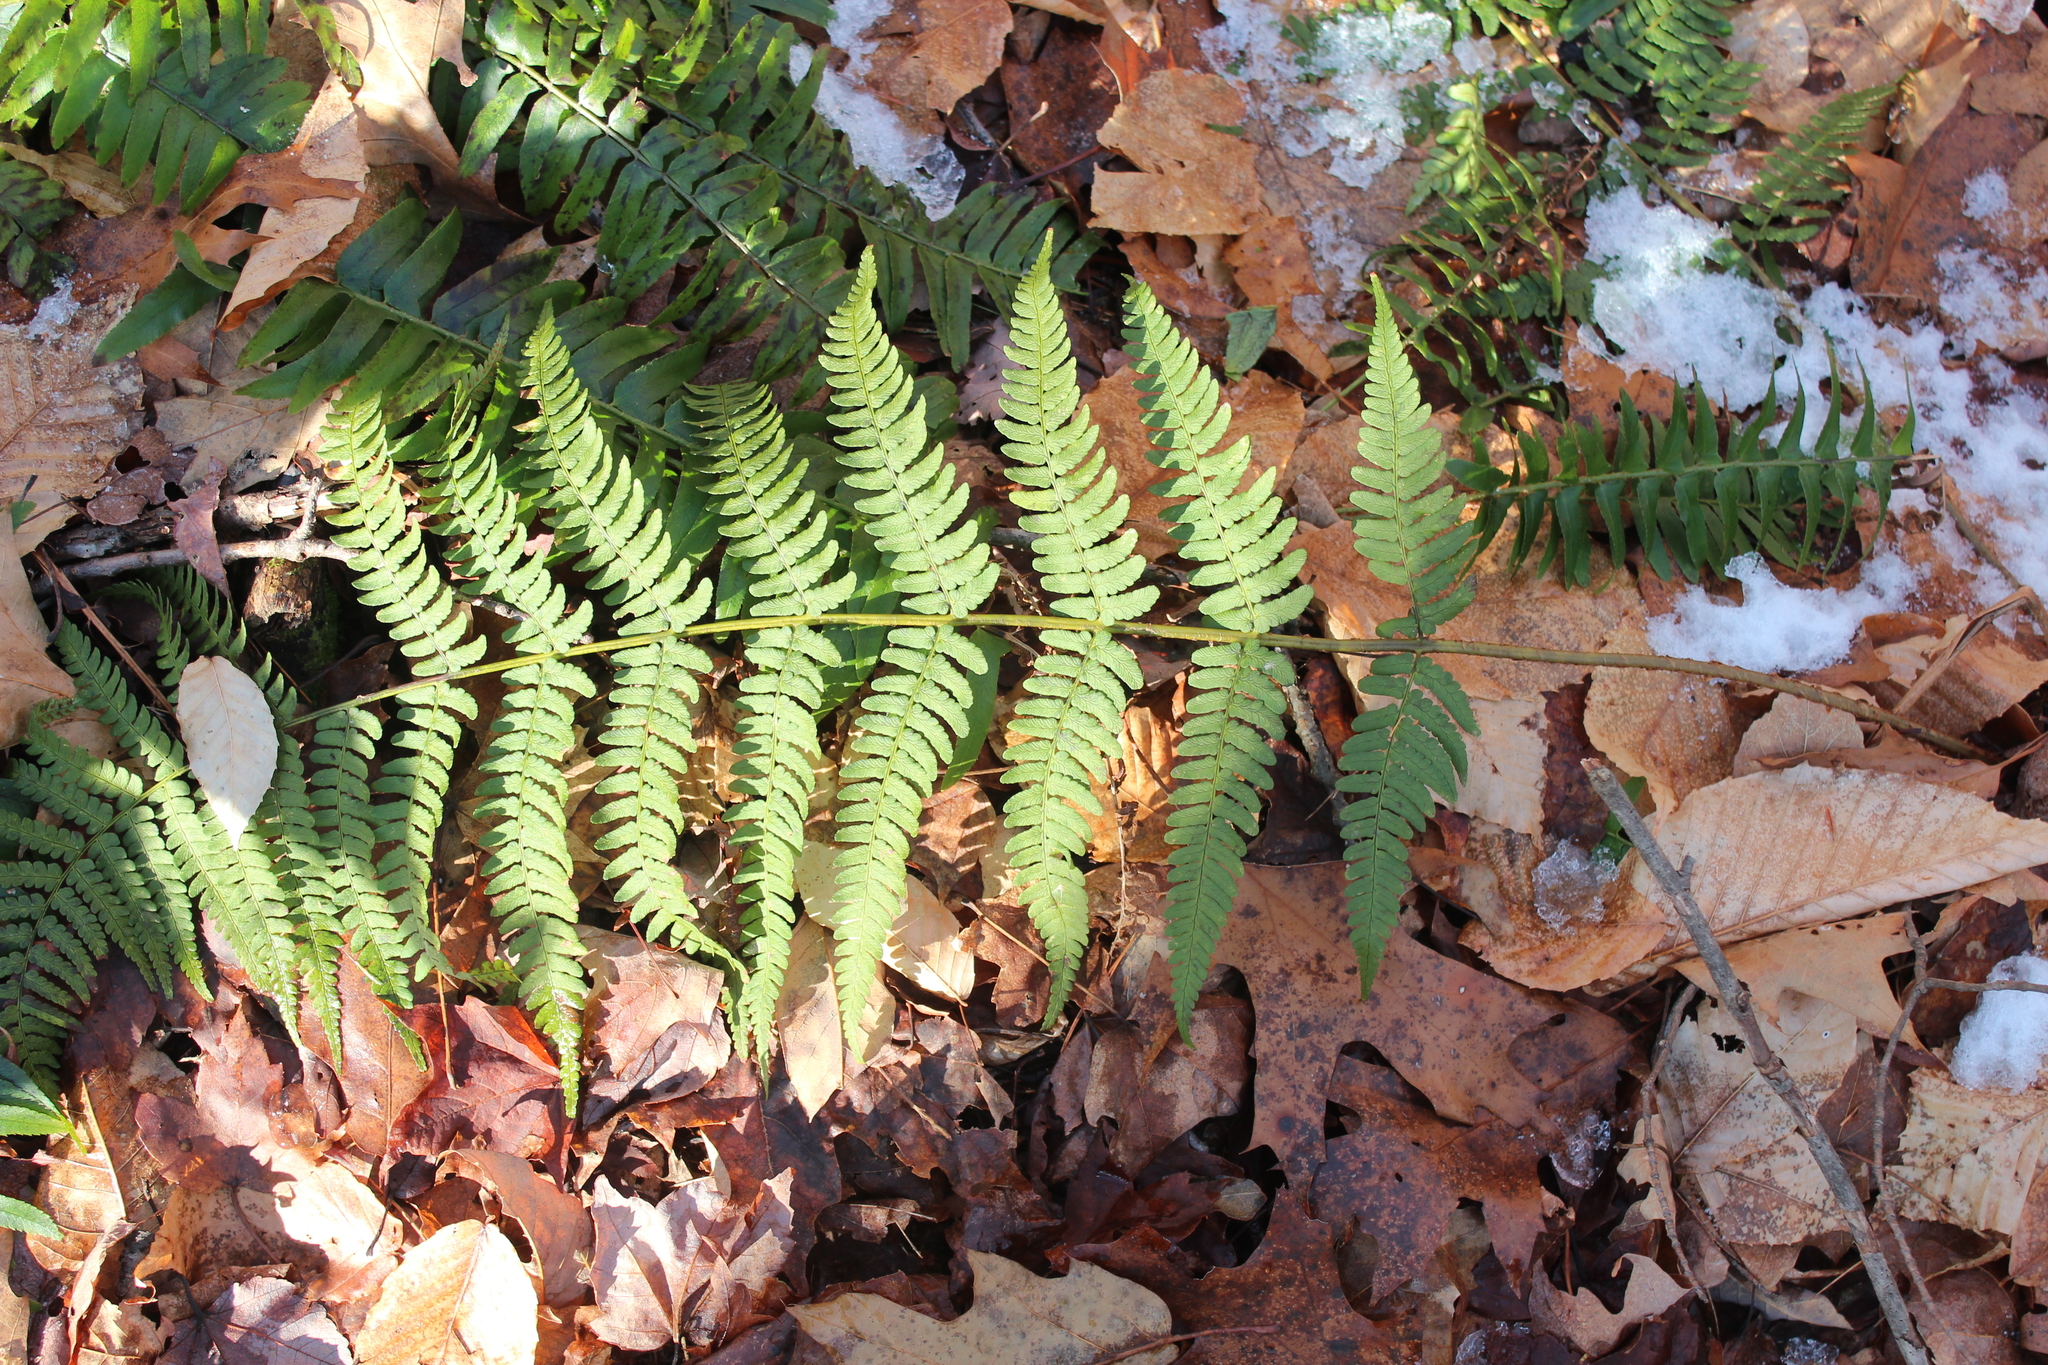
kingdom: Plantae
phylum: Tracheophyta
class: Polypodiopsida
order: Polypodiales
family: Dryopteridaceae
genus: Dryopteris
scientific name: Dryopteris marginalis
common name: Marginal wood fern
